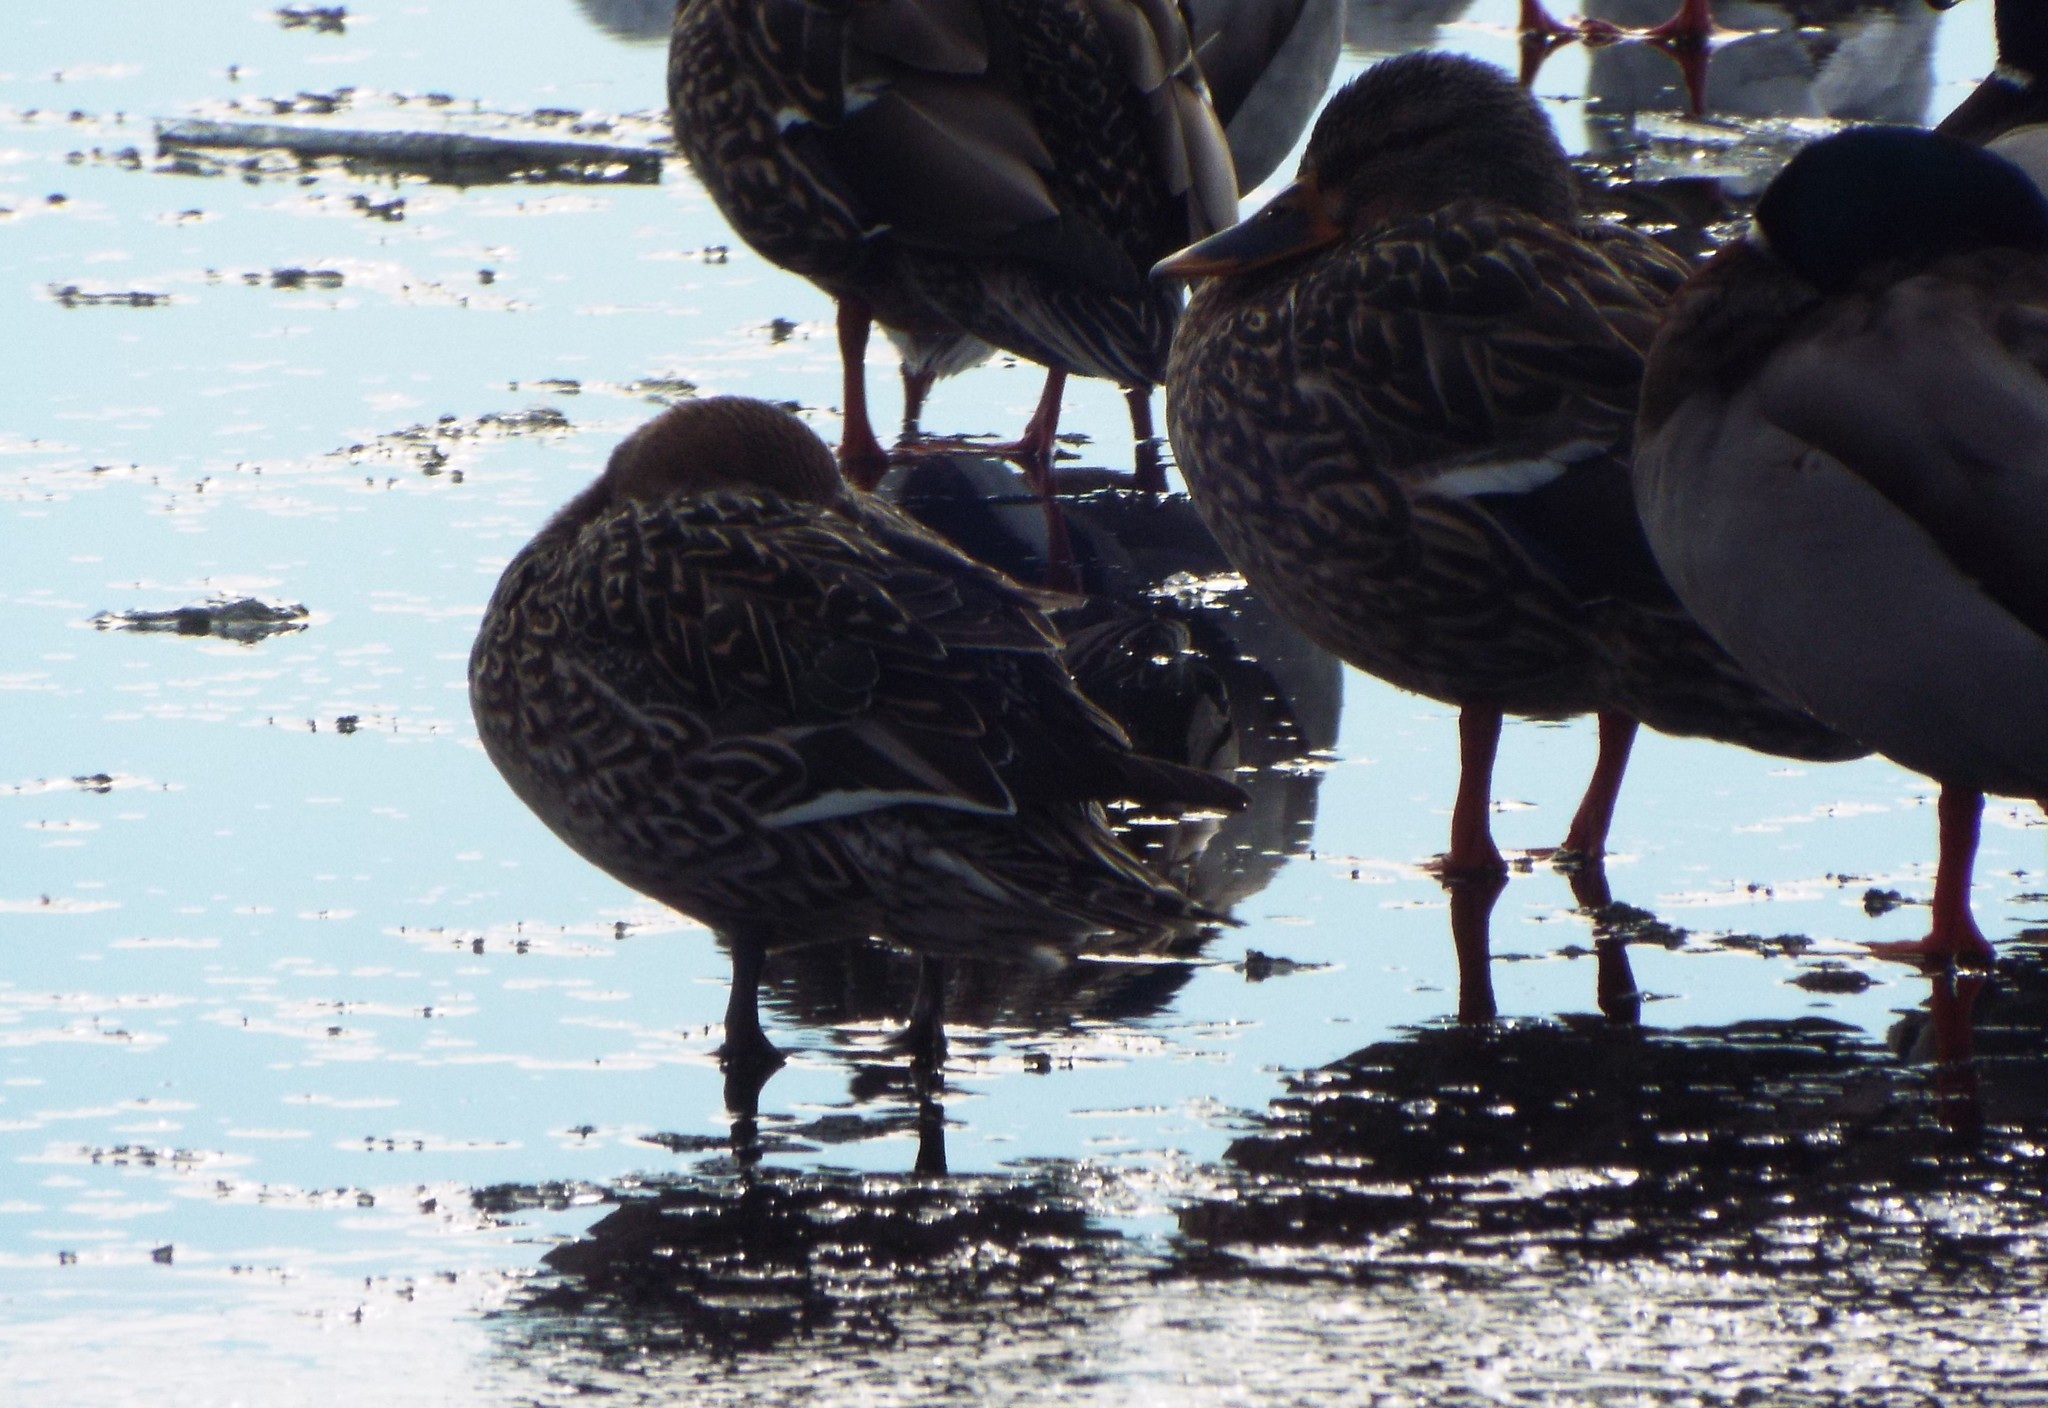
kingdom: Animalia
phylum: Chordata
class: Aves
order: Anseriformes
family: Anatidae
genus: Anas
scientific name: Anas acuta
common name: Northern pintail
